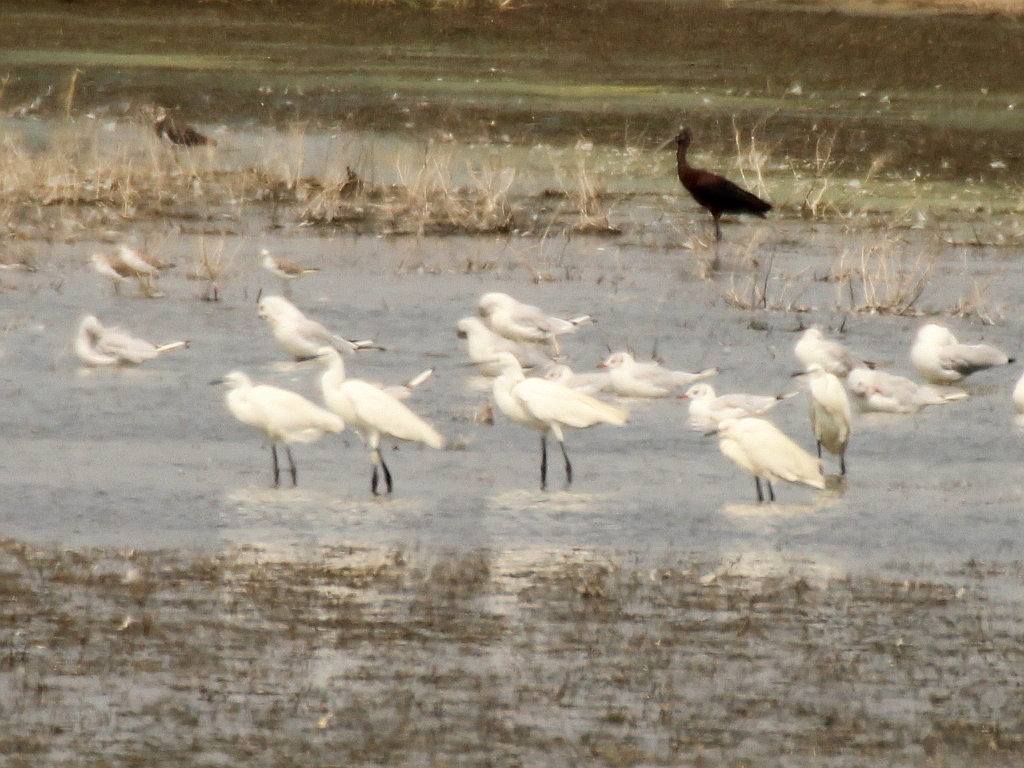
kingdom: Animalia
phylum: Chordata
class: Aves
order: Pelecaniformes
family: Ardeidae
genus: Egretta
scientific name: Egretta garzetta
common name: Little egret
